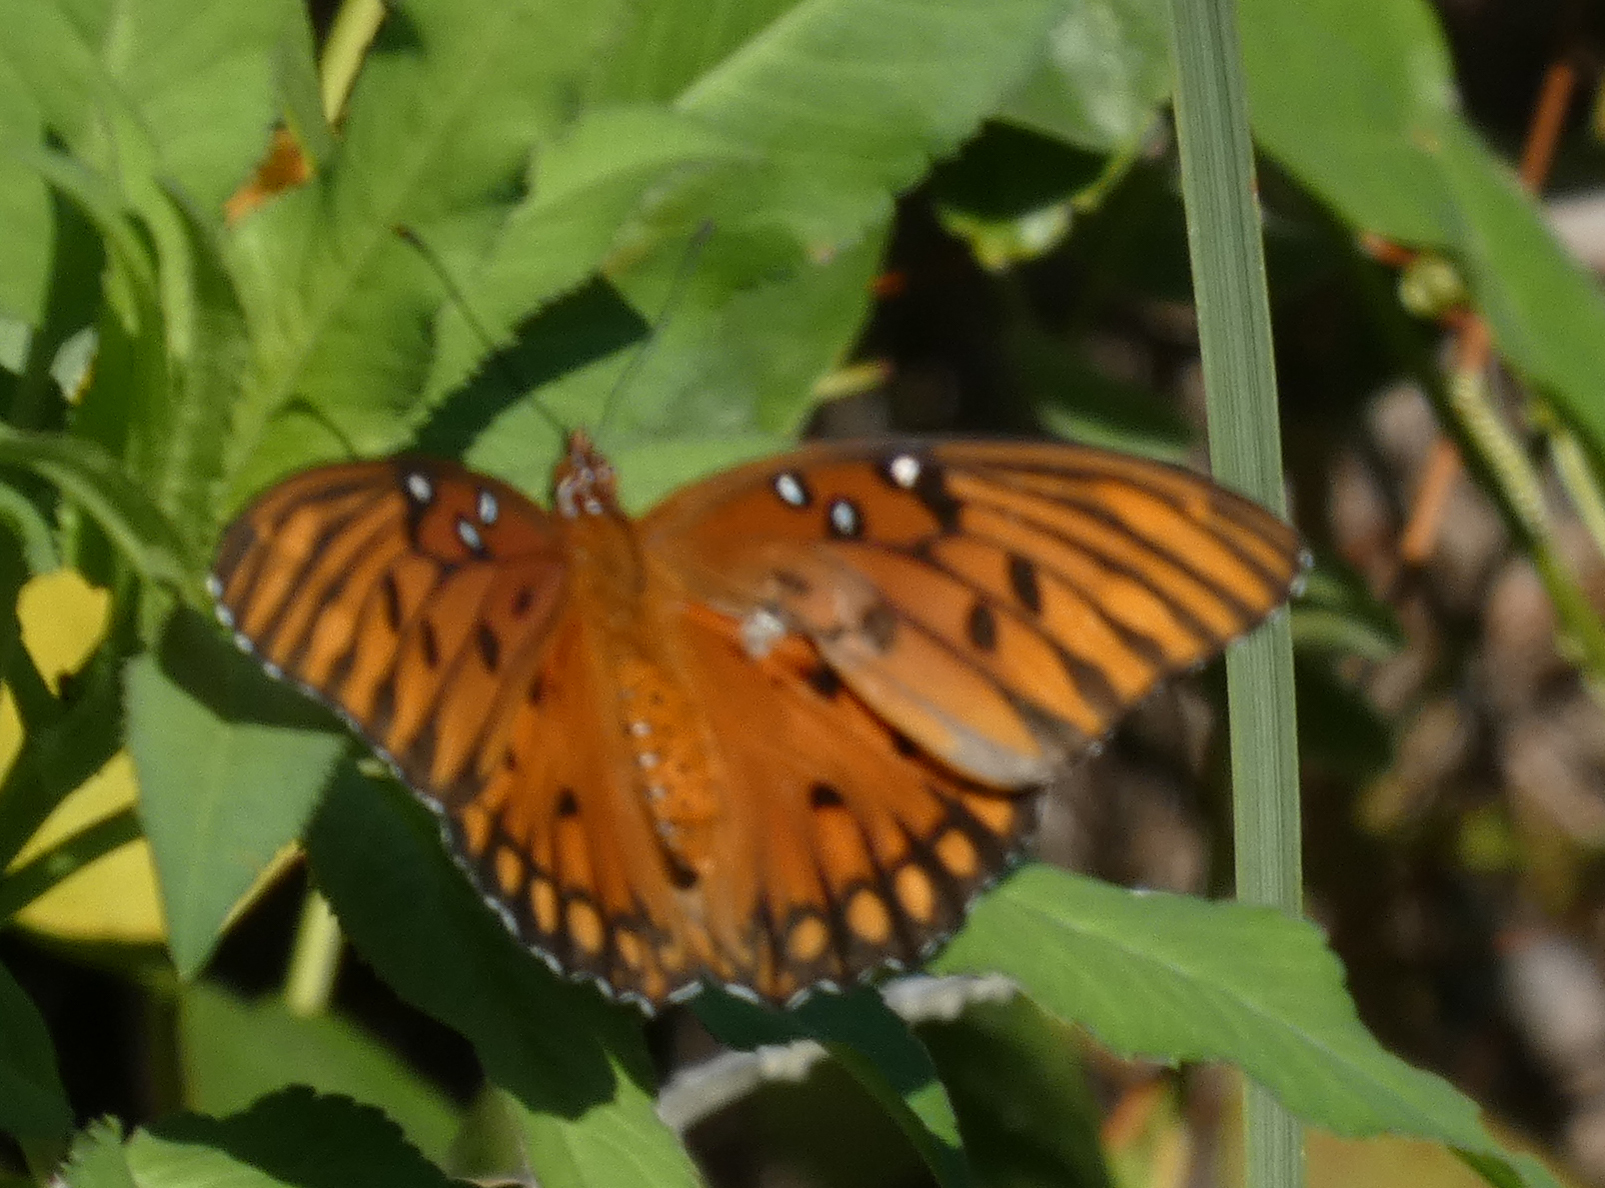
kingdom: Animalia
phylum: Arthropoda
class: Insecta
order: Lepidoptera
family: Nymphalidae
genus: Dione
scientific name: Dione vanillae
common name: Gulf fritillary
